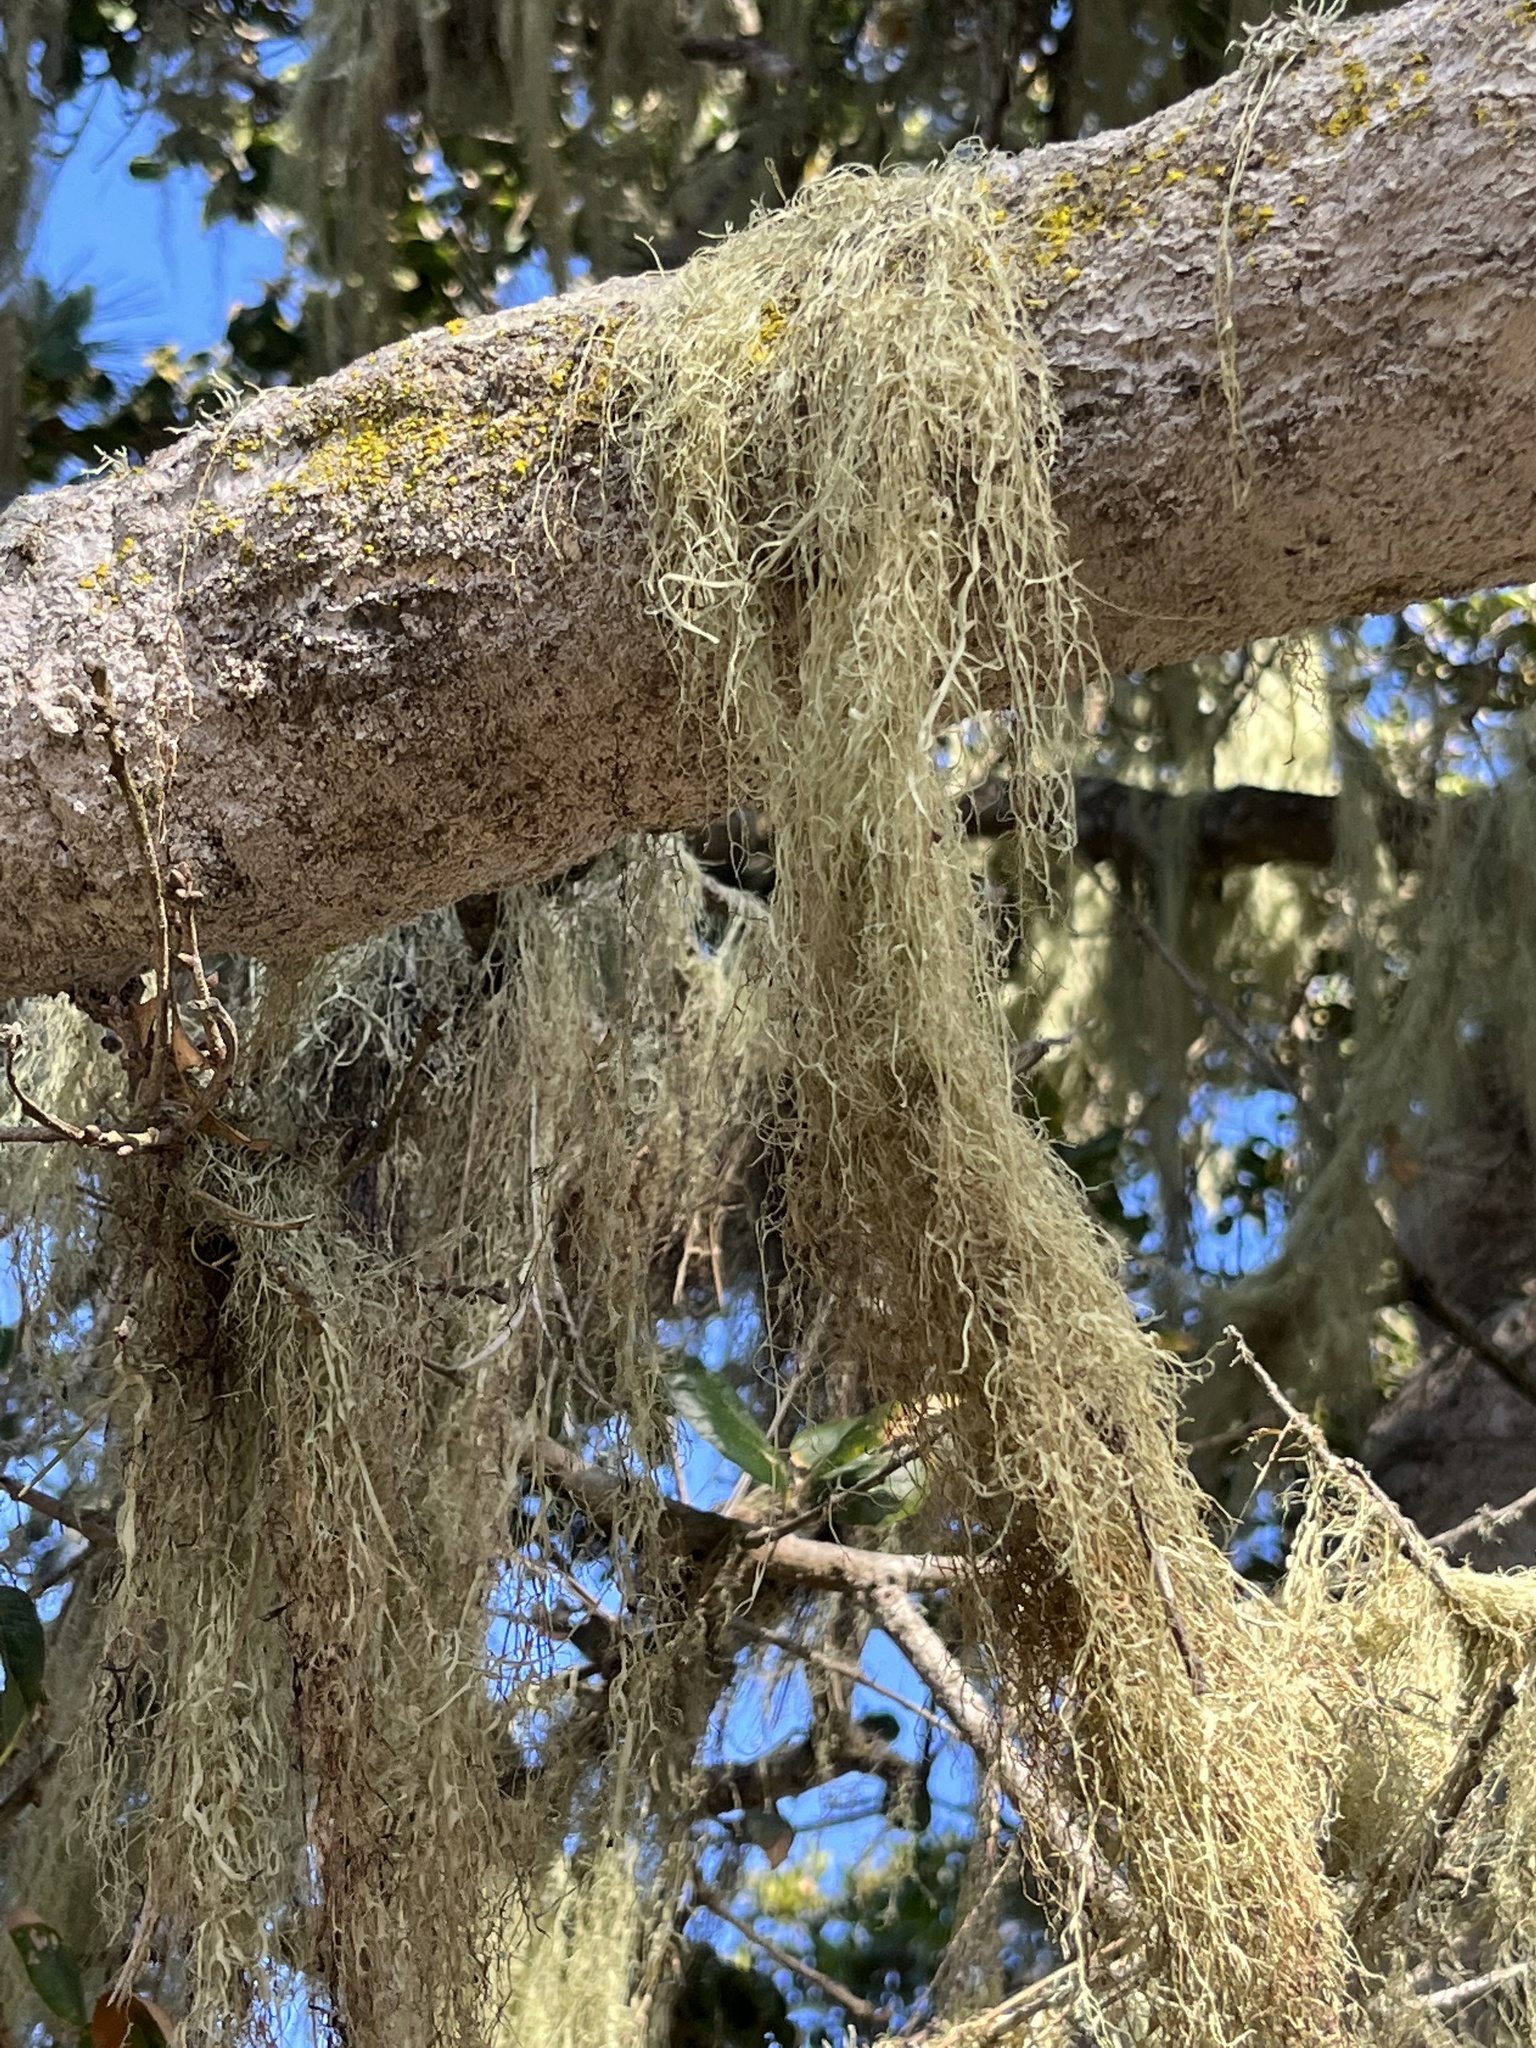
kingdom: Fungi
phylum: Ascomycota
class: Lecanoromycetes
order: Lecanorales
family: Ramalinaceae
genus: Ramalina
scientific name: Ramalina menziesii
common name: Lace lichen
